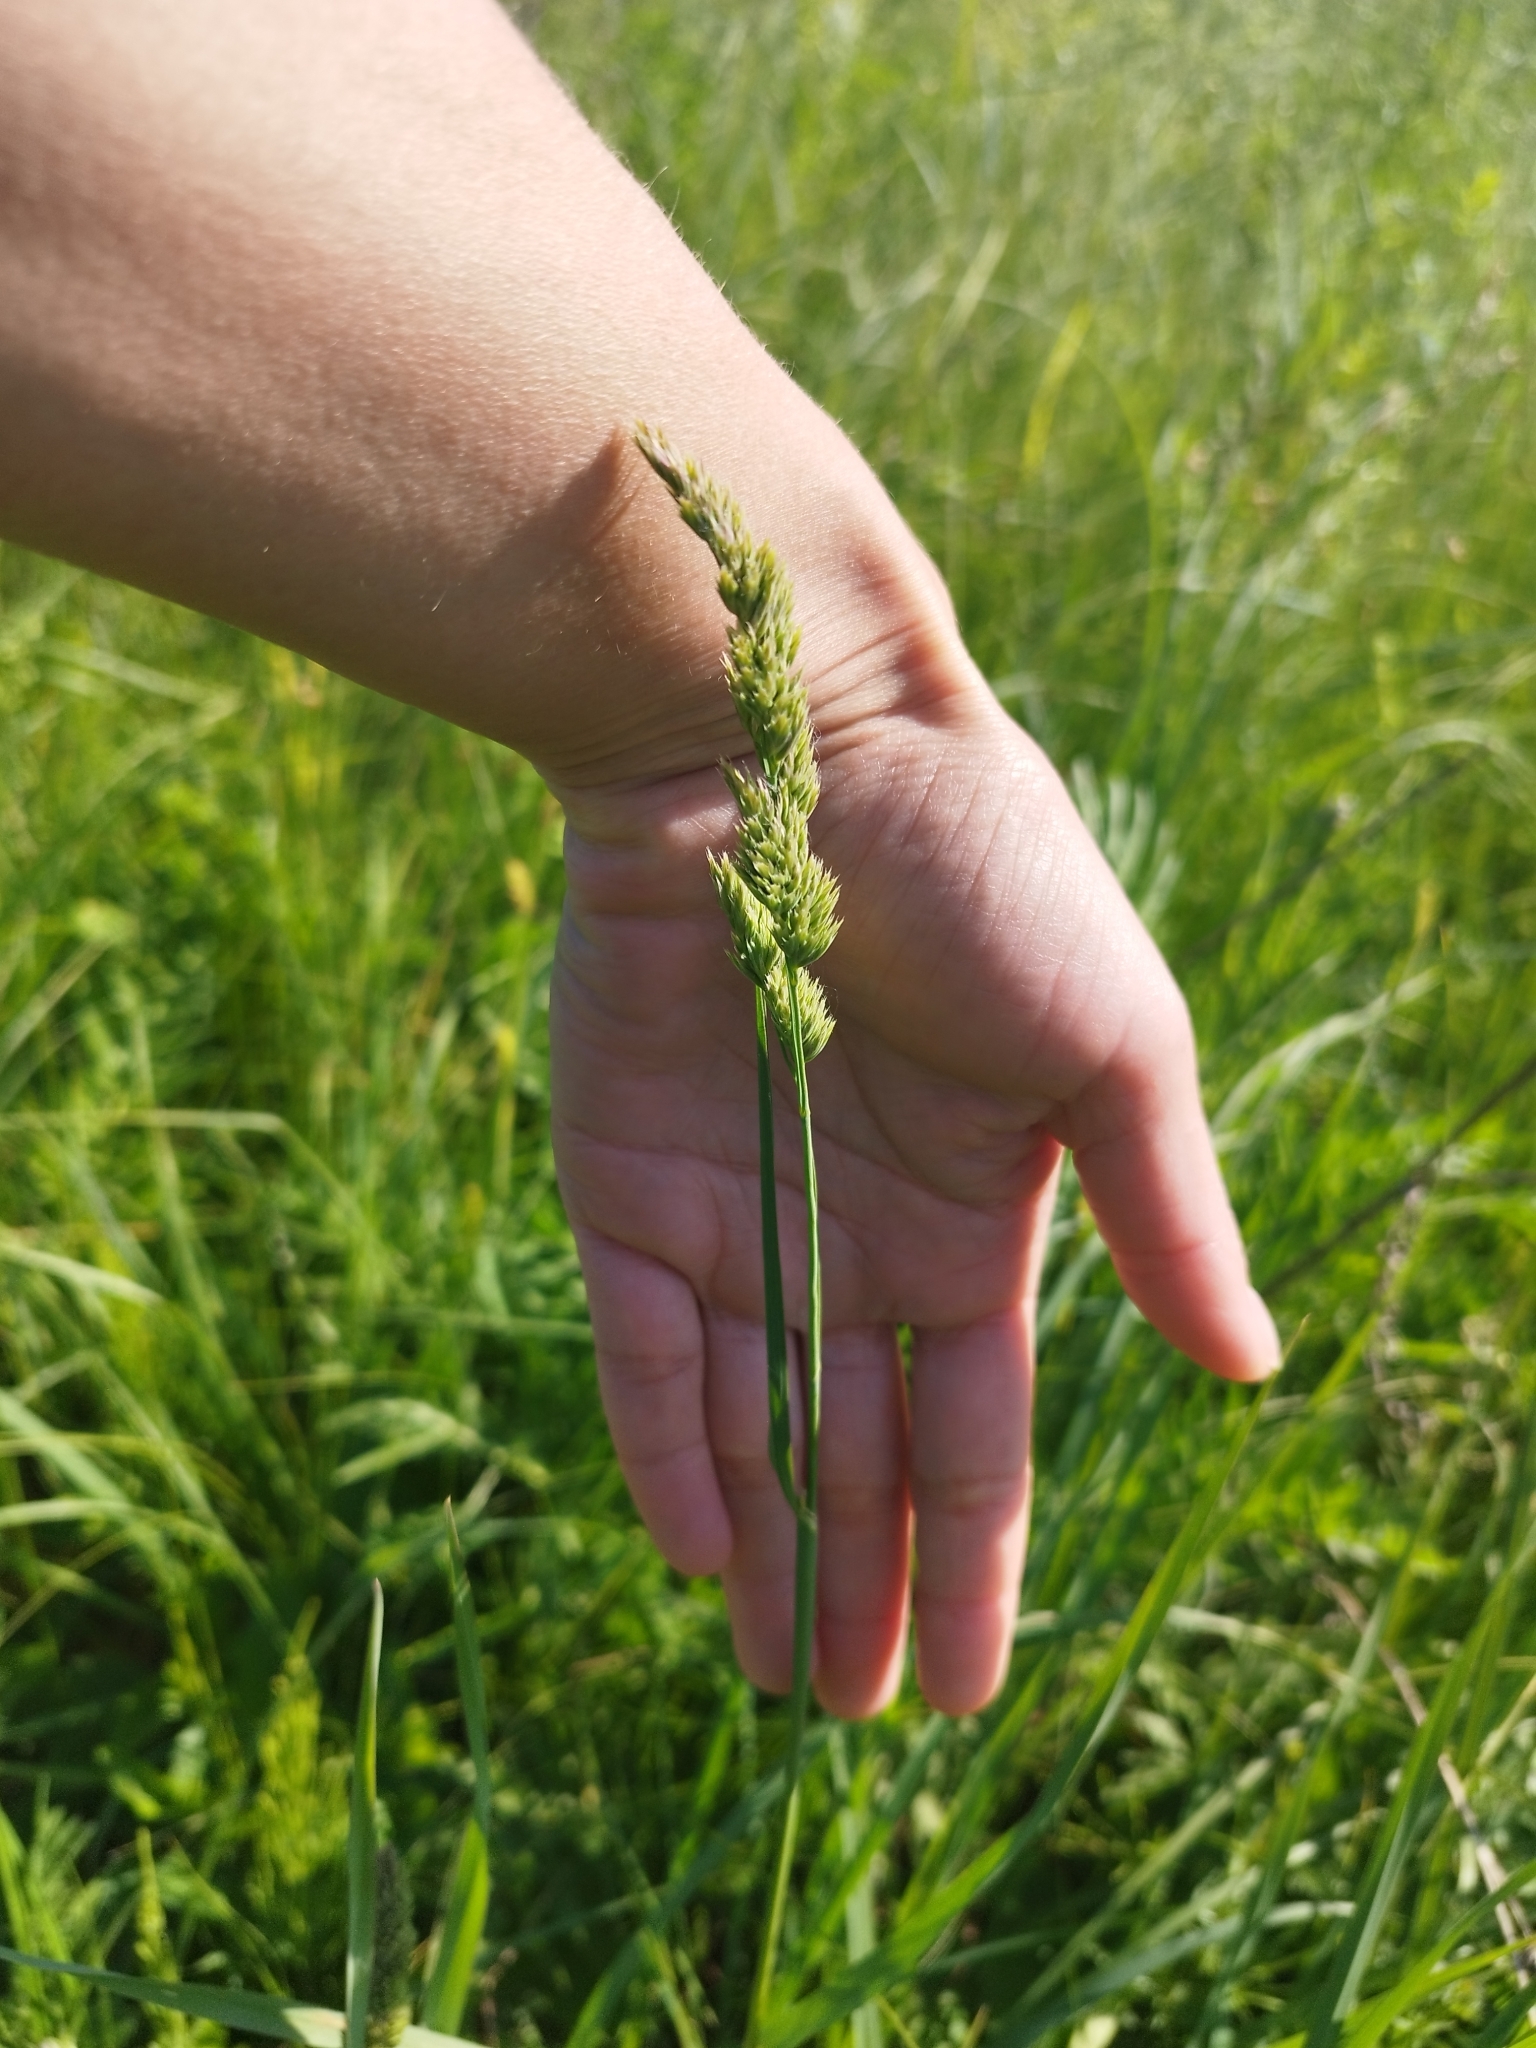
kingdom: Plantae
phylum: Tracheophyta
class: Liliopsida
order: Poales
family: Poaceae
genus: Dactylis
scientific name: Dactylis glomerata
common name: Orchardgrass
